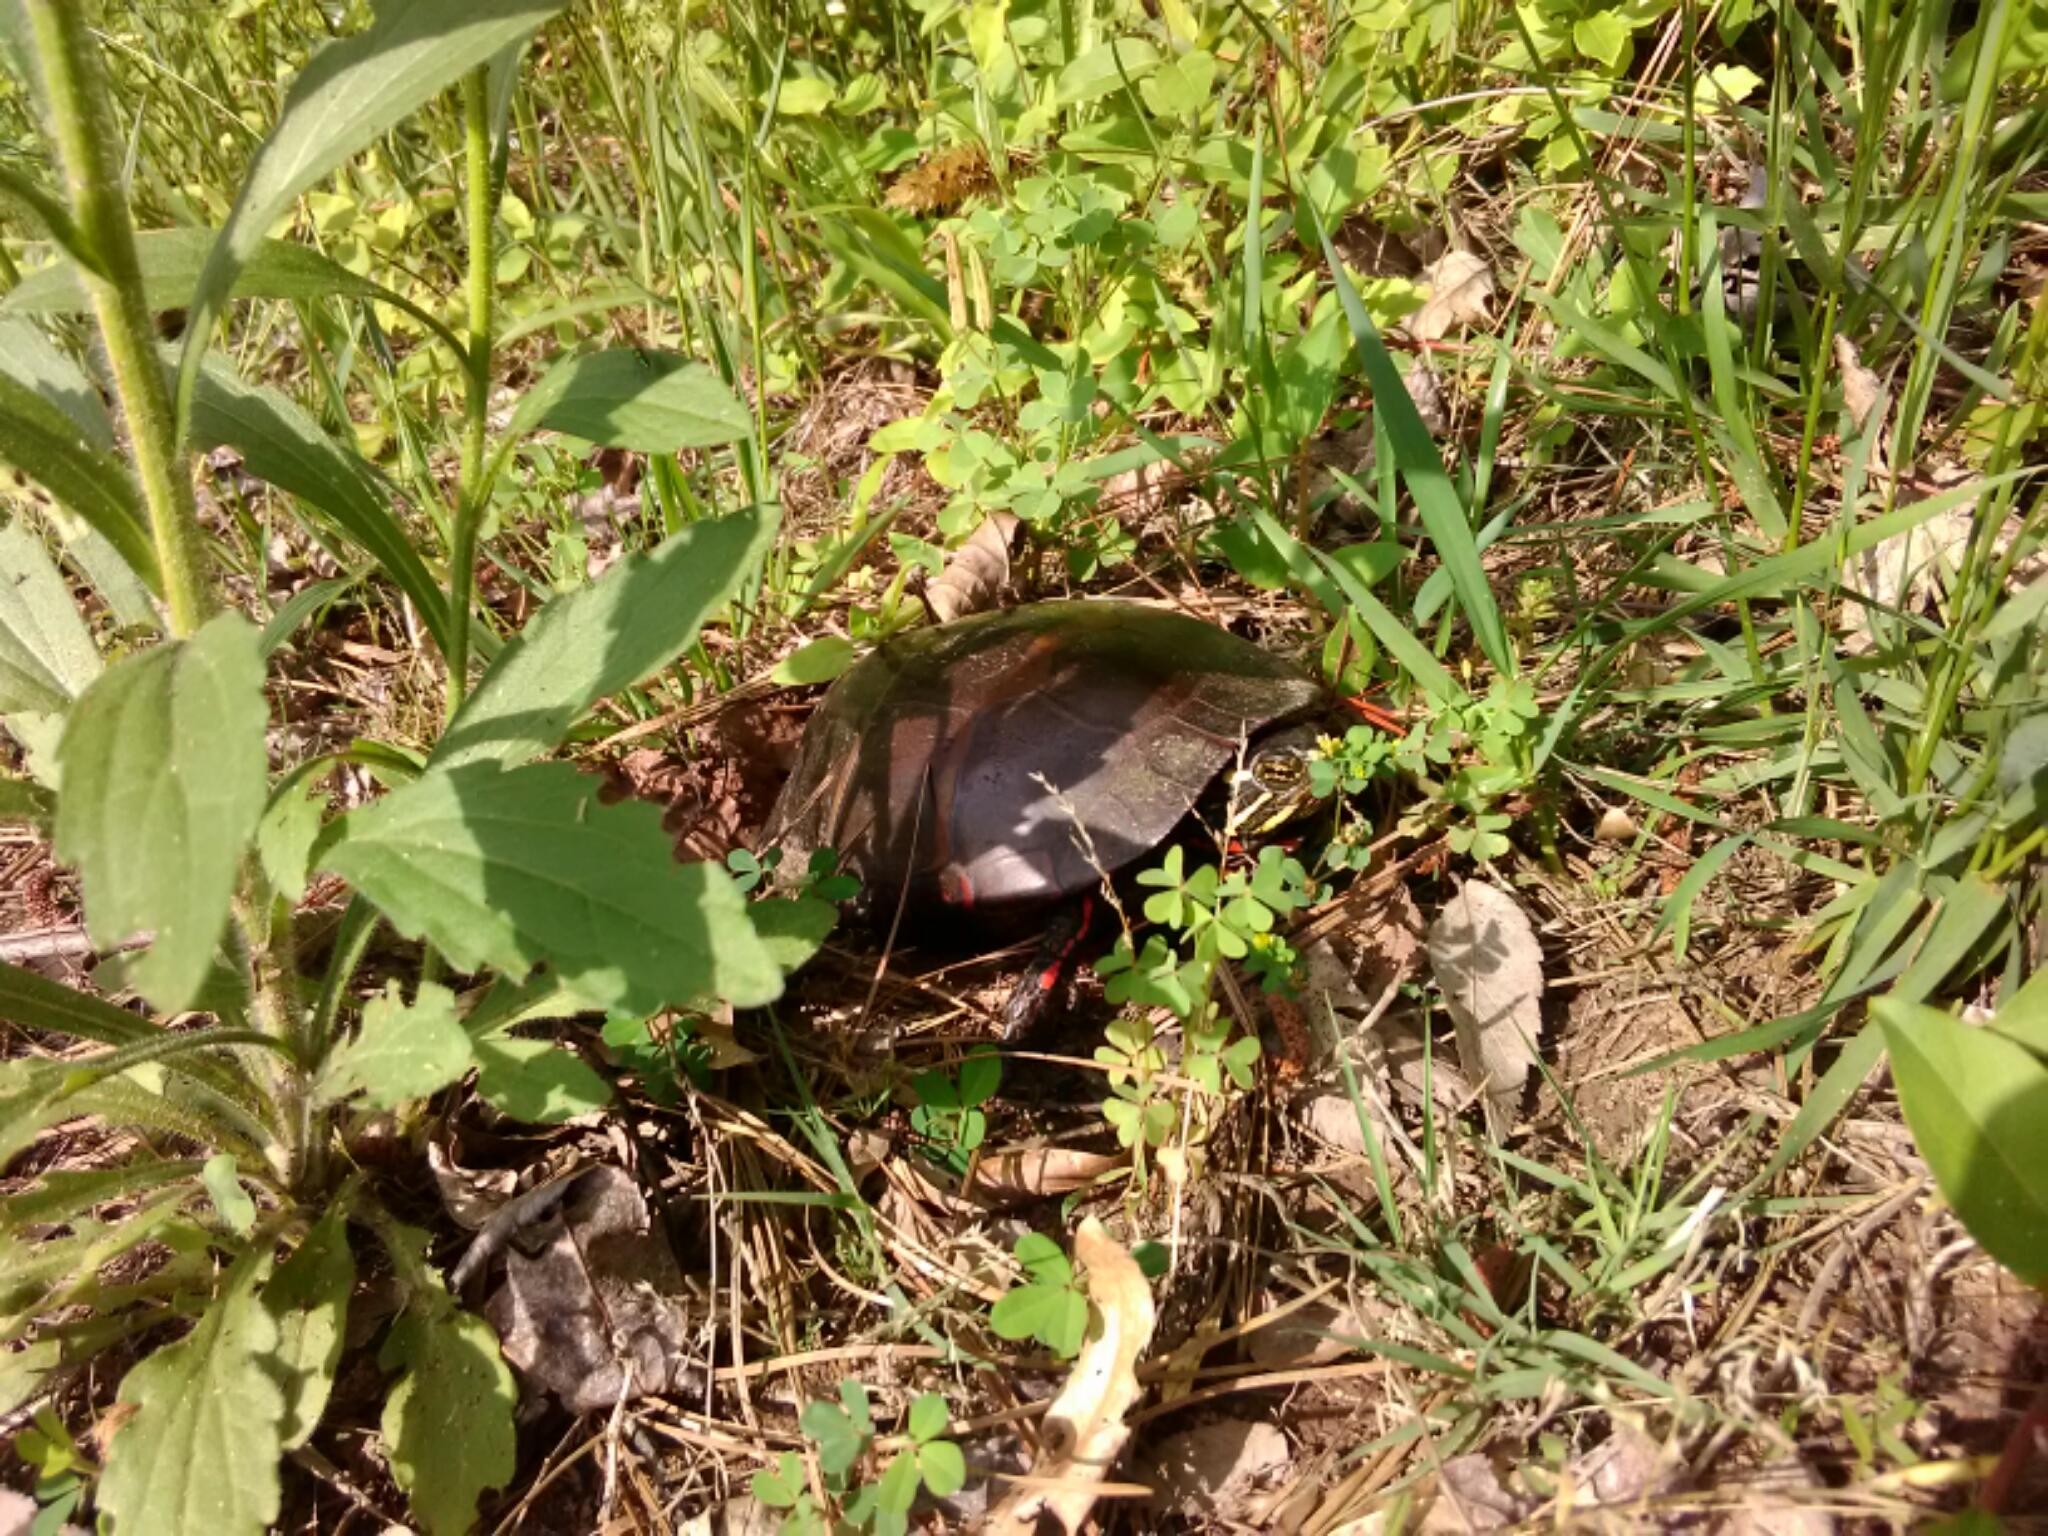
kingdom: Animalia
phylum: Chordata
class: Testudines
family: Emydidae
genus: Chrysemys
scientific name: Chrysemys picta
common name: Painted turtle
